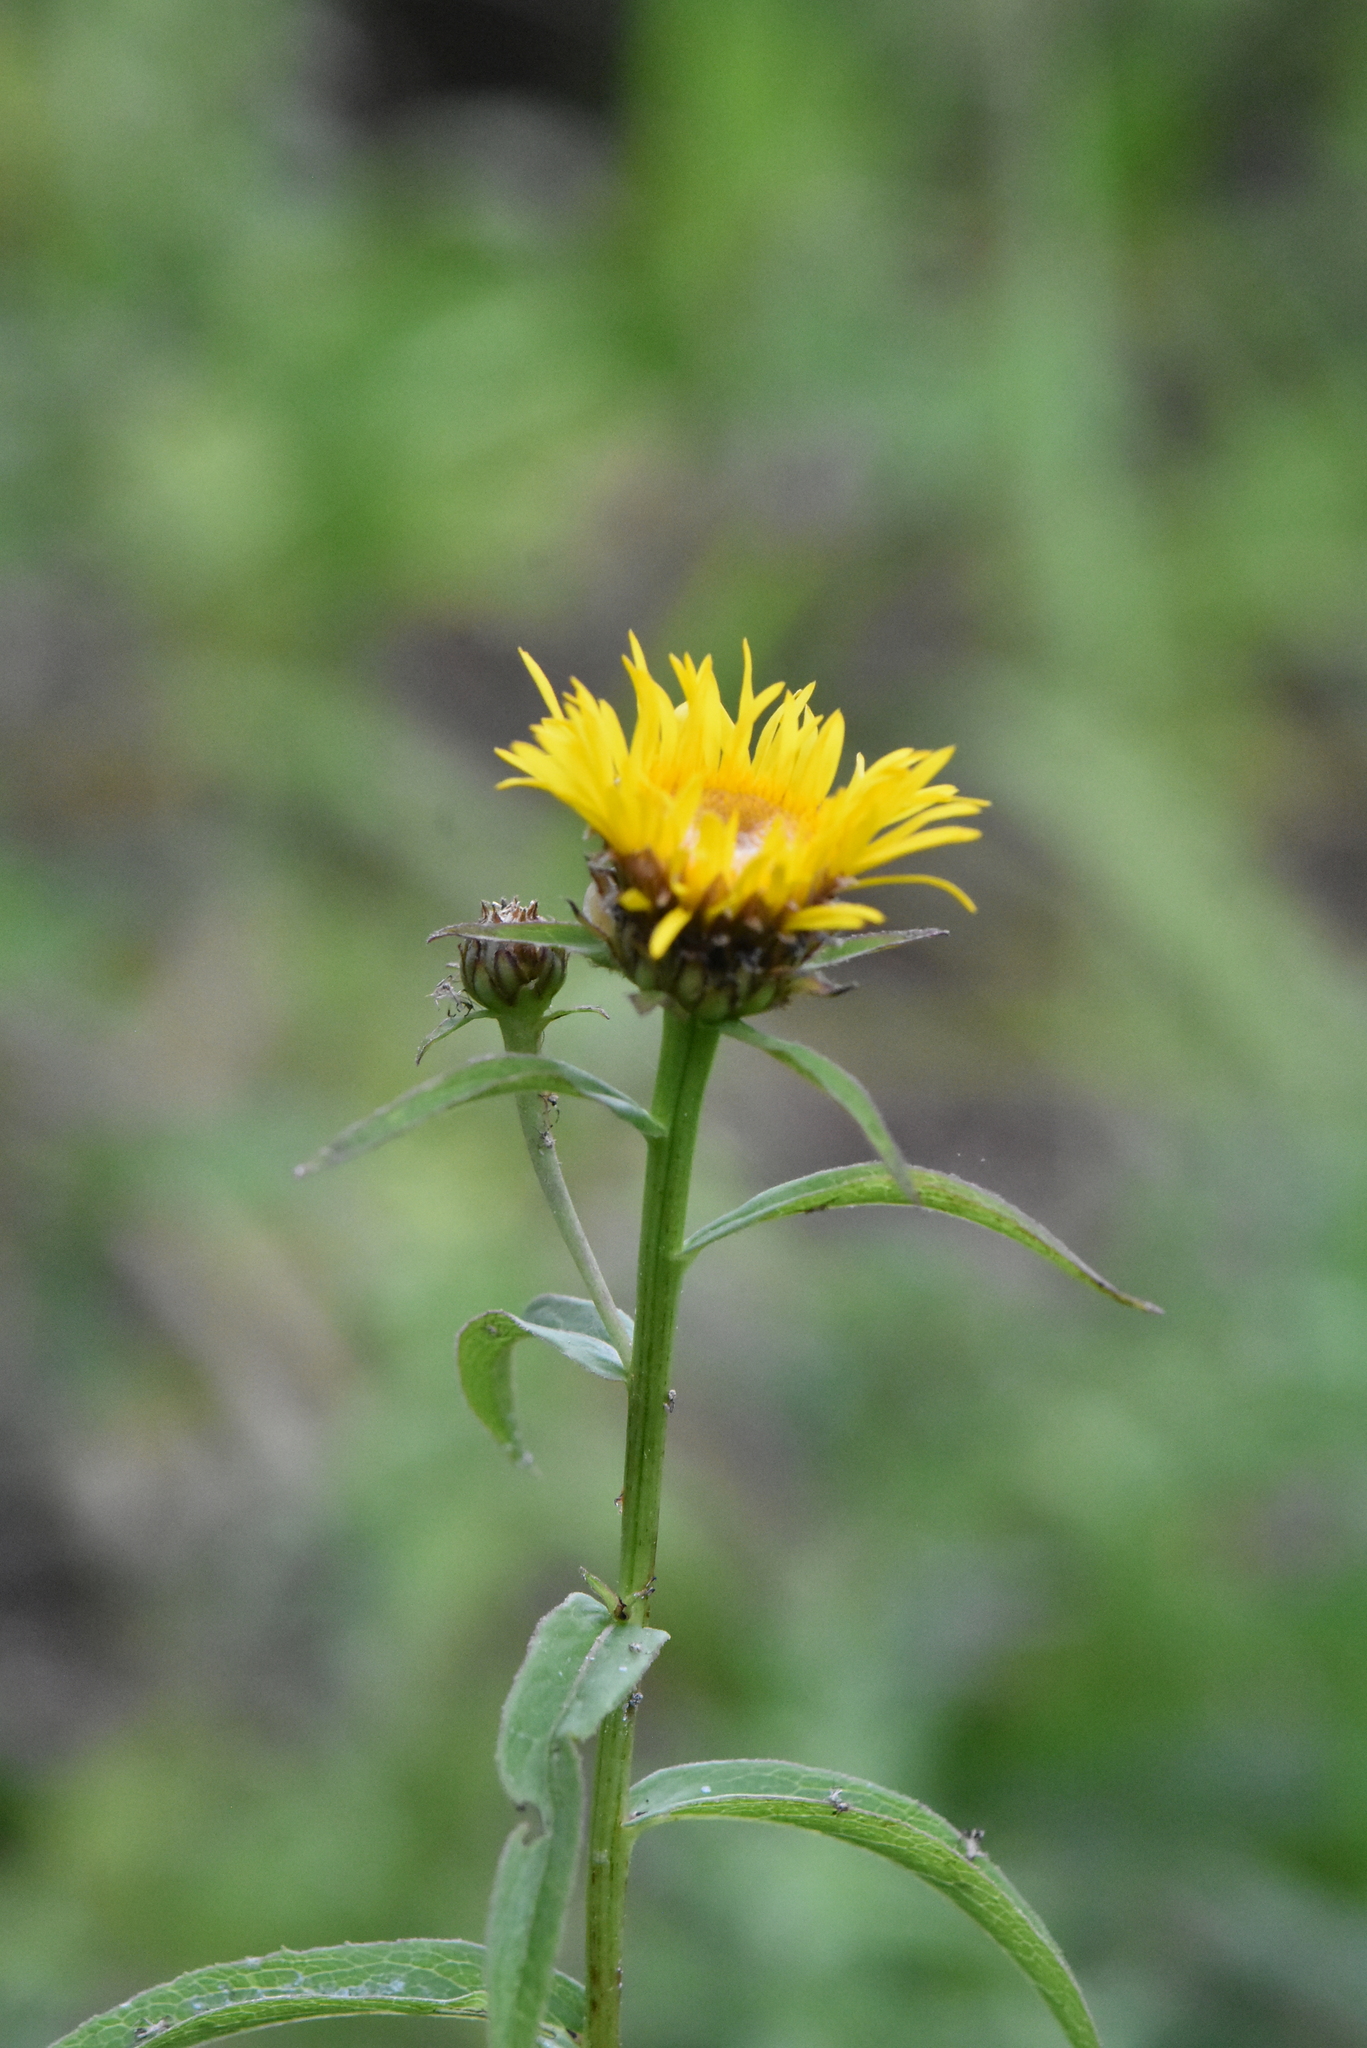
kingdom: Plantae
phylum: Tracheophyta
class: Magnoliopsida
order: Asterales
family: Asteraceae
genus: Pentanema
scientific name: Pentanema salicinum
